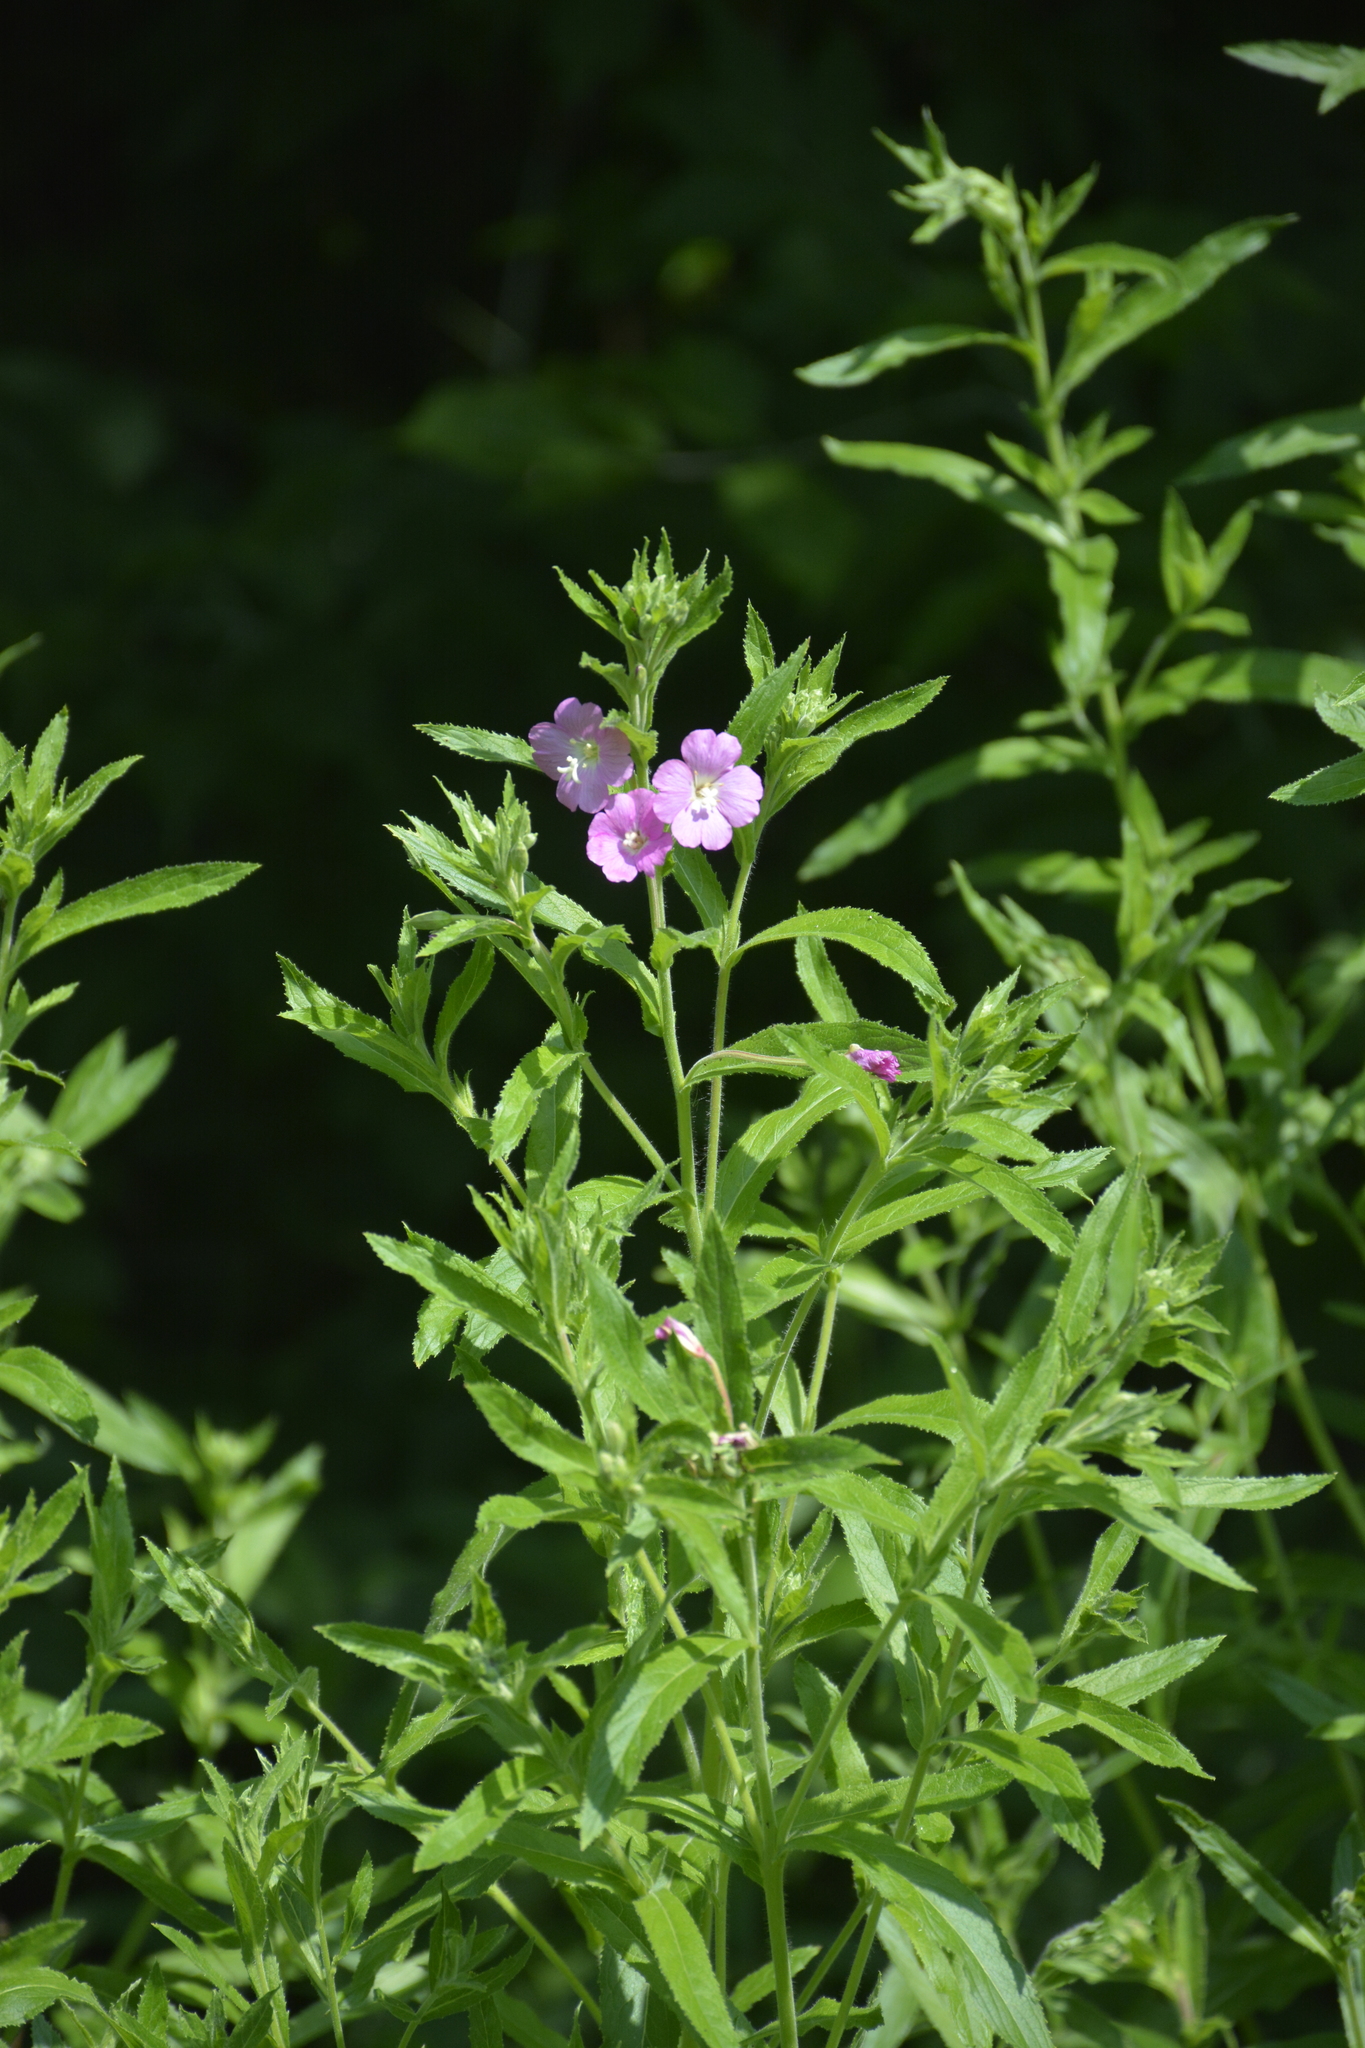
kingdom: Plantae
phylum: Tracheophyta
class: Magnoliopsida
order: Myrtales
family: Onagraceae
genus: Epilobium
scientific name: Epilobium hirsutum
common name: Great willowherb
